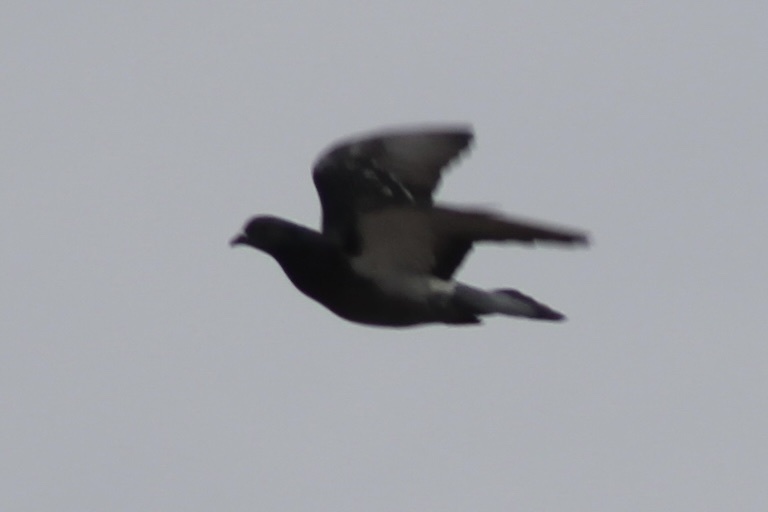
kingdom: Animalia
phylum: Chordata
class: Aves
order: Columbiformes
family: Columbidae
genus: Columba
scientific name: Columba livia
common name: Rock pigeon
